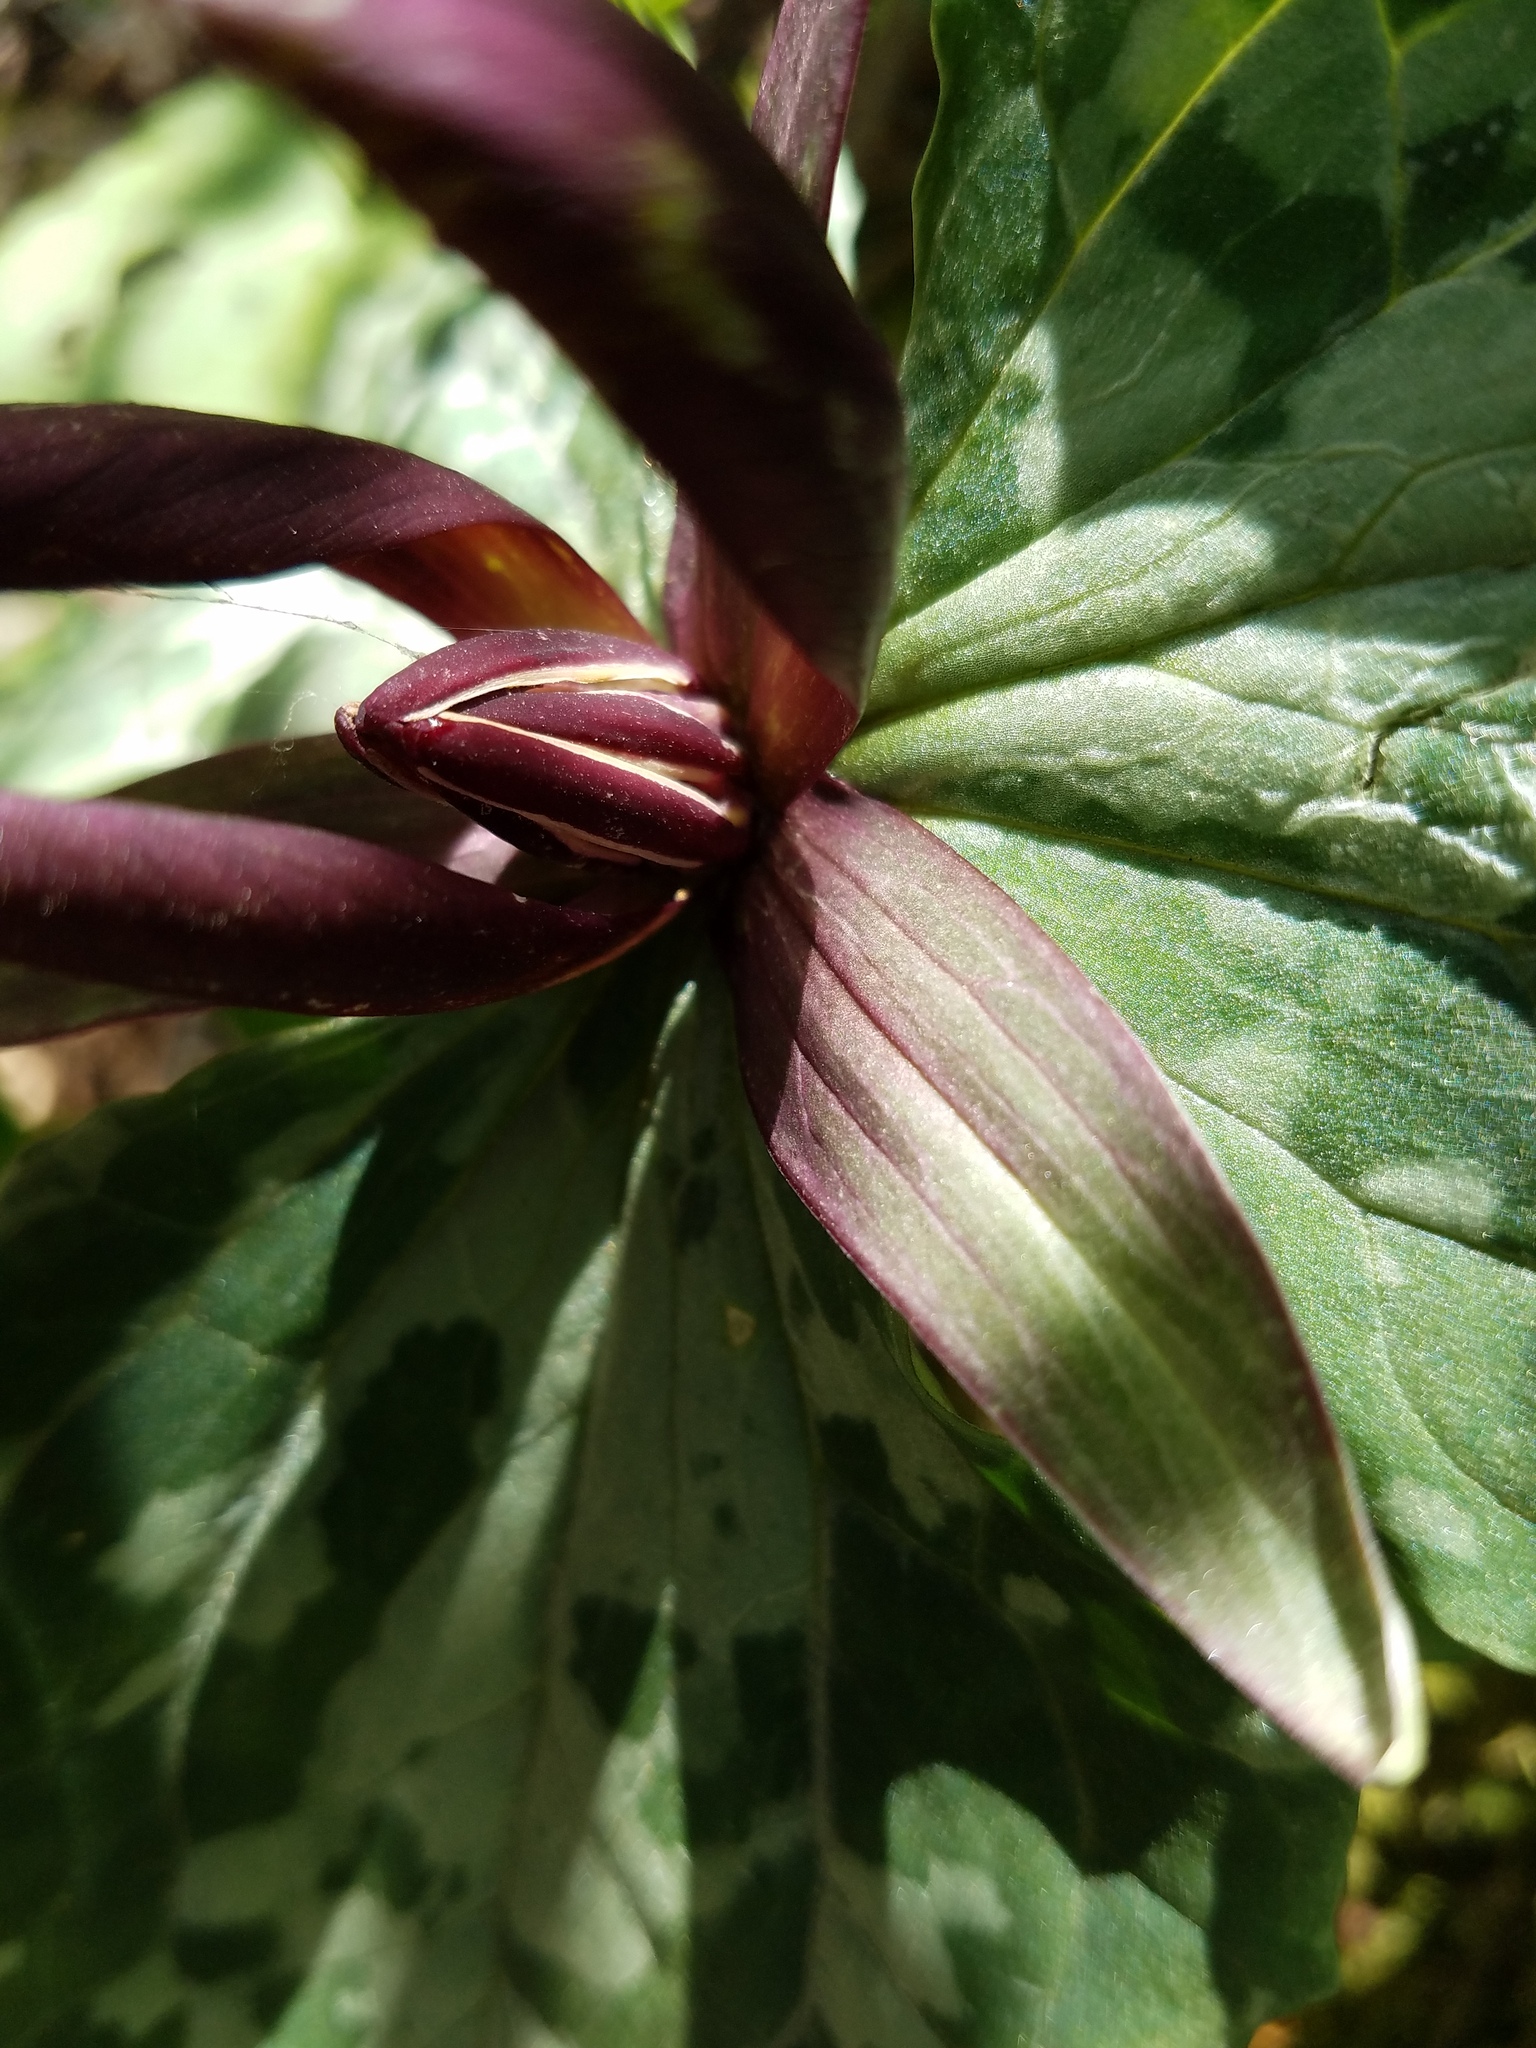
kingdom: Plantae
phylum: Tracheophyta
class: Liliopsida
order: Liliales
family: Melanthiaceae
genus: Trillium
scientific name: Trillium cuneatum
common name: Cuneate trillium
